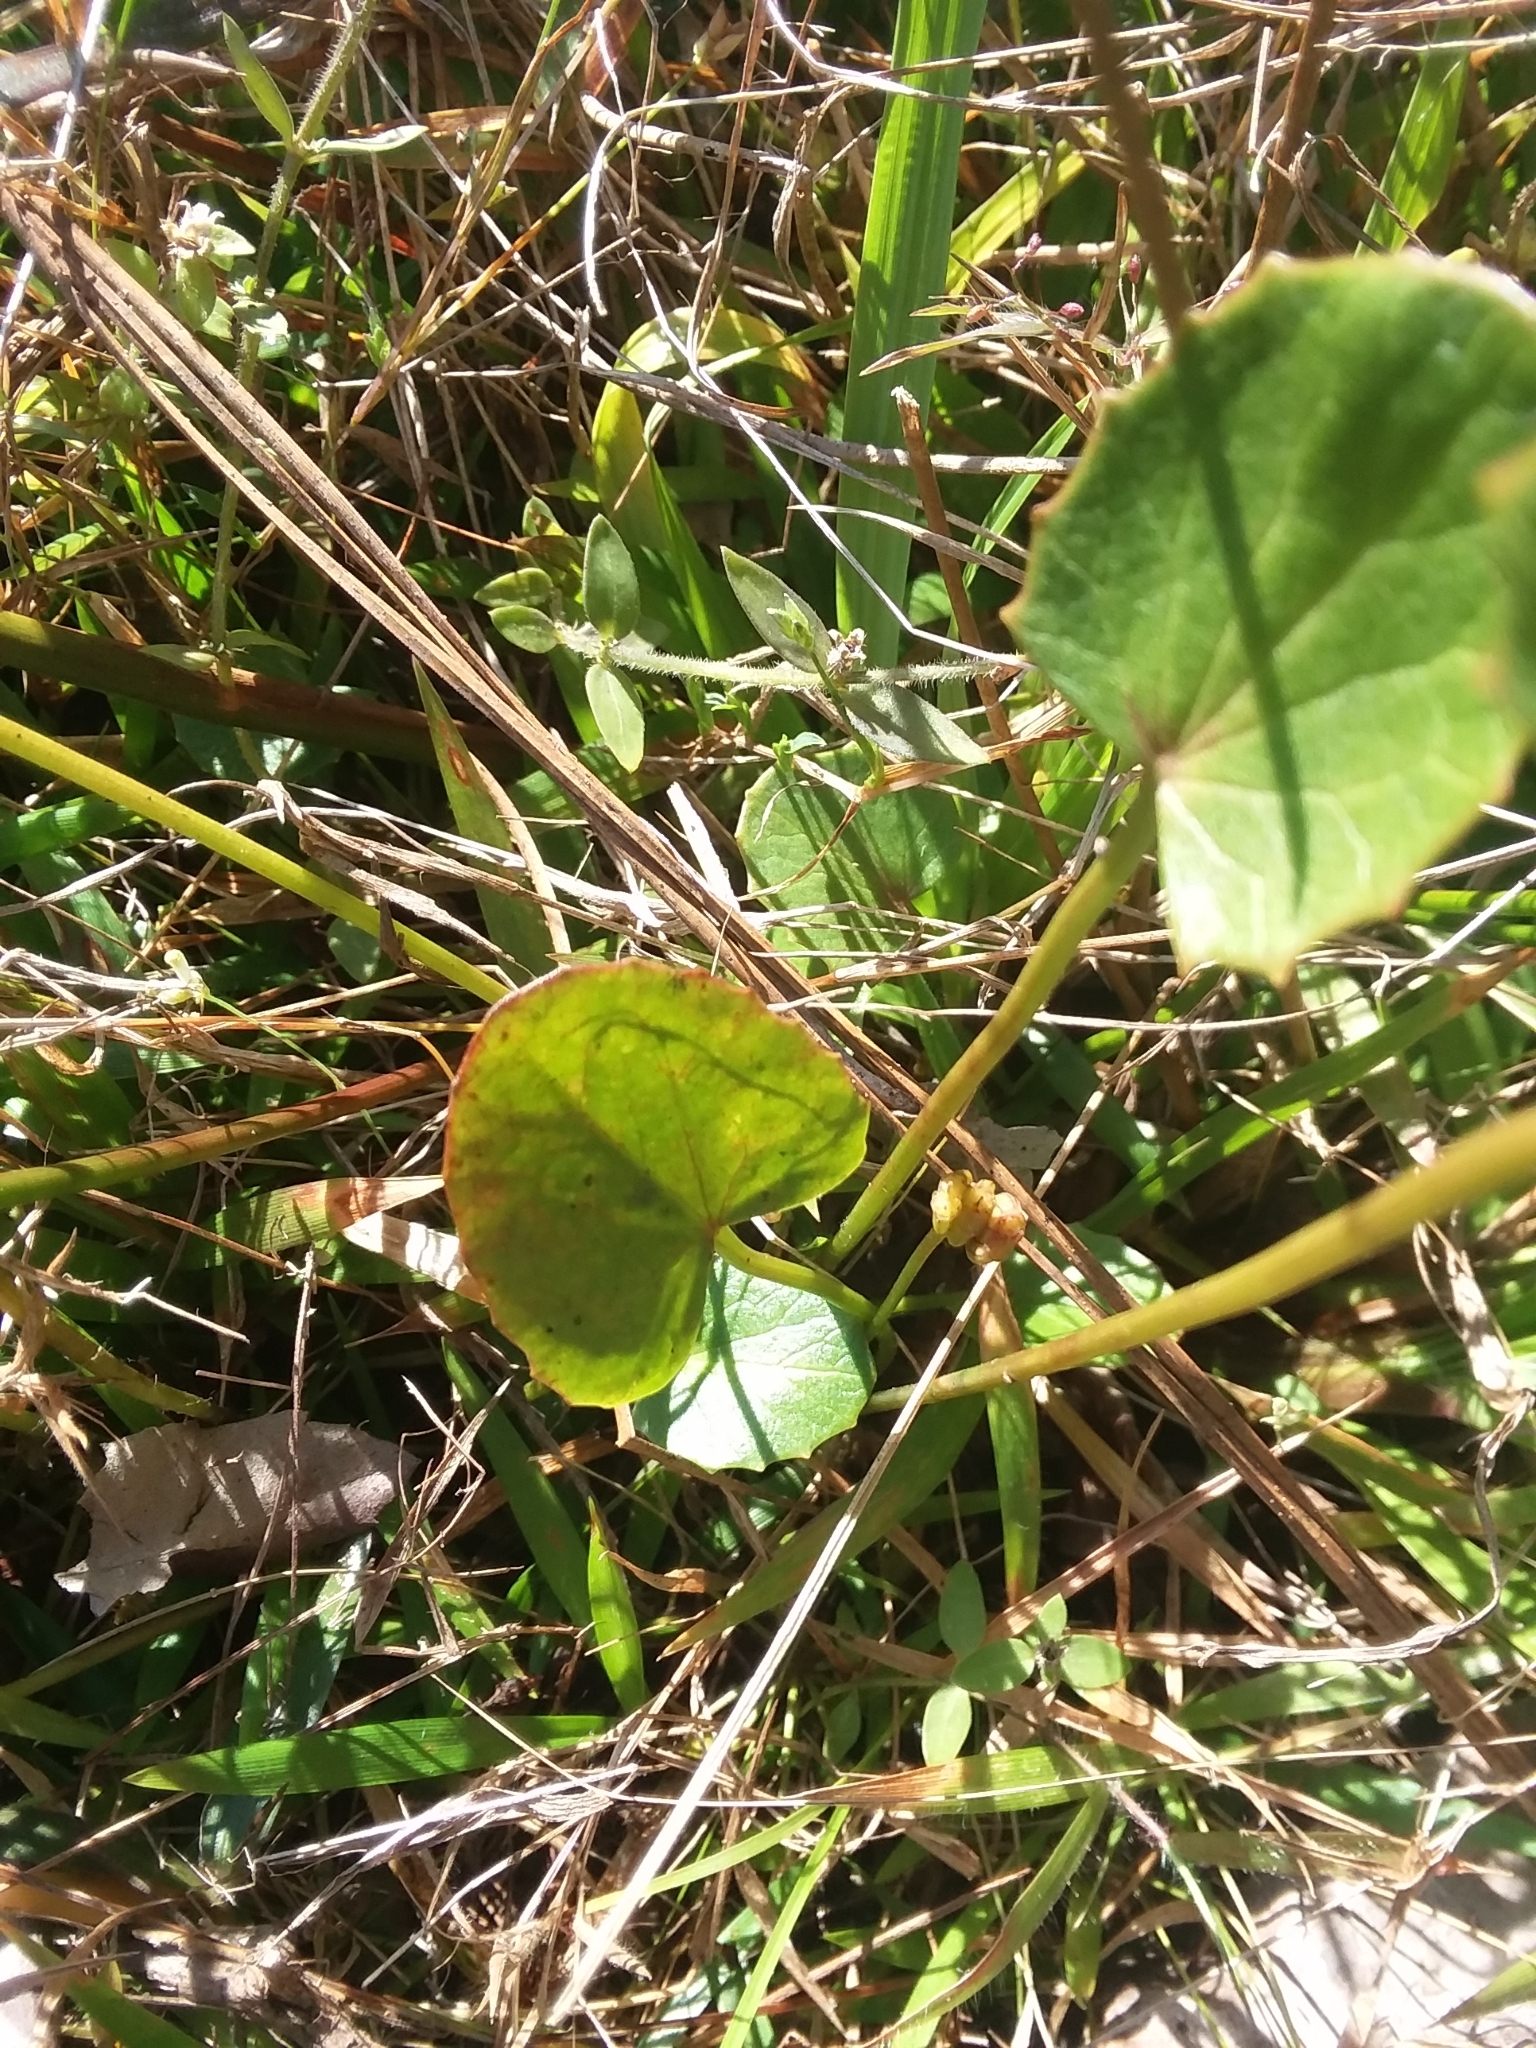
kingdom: Plantae
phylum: Tracheophyta
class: Magnoliopsida
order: Apiales
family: Apiaceae
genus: Centella
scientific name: Centella erecta
